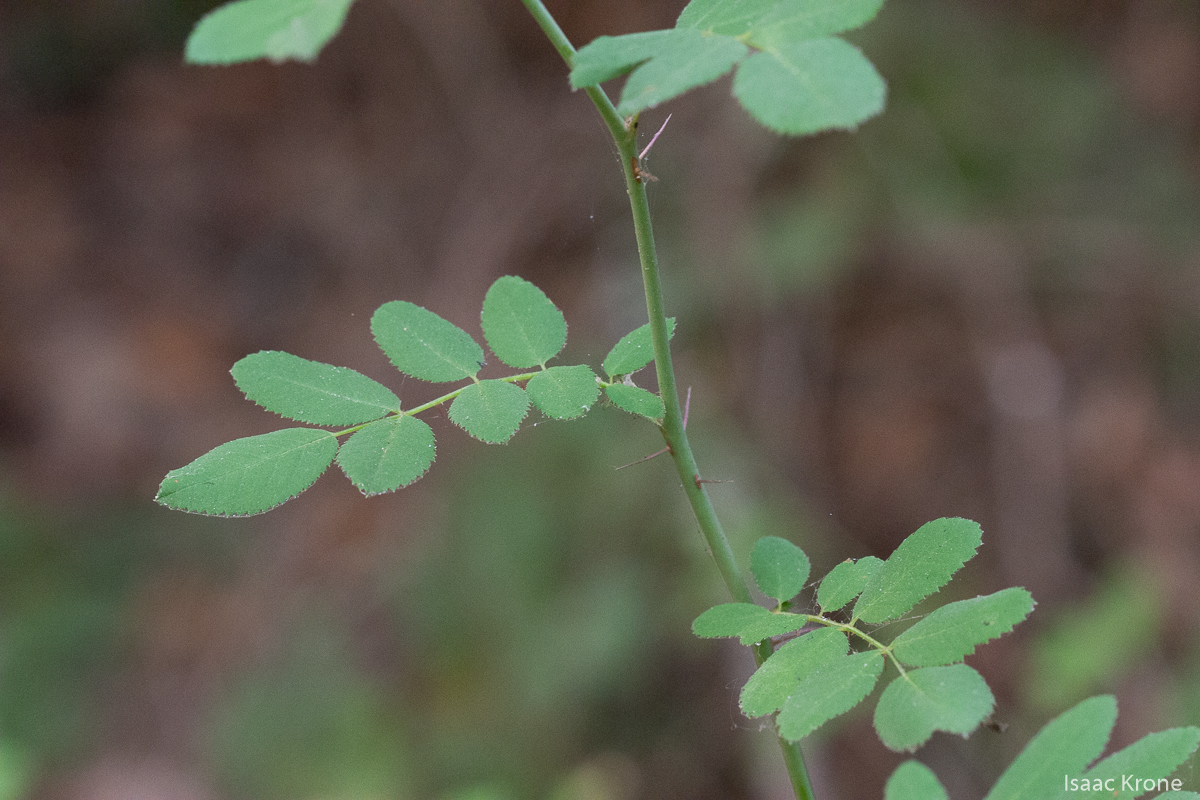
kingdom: Plantae
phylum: Tracheophyta
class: Magnoliopsida
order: Rosales
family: Rosaceae
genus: Rosa
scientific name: Rosa gymnocarpa
